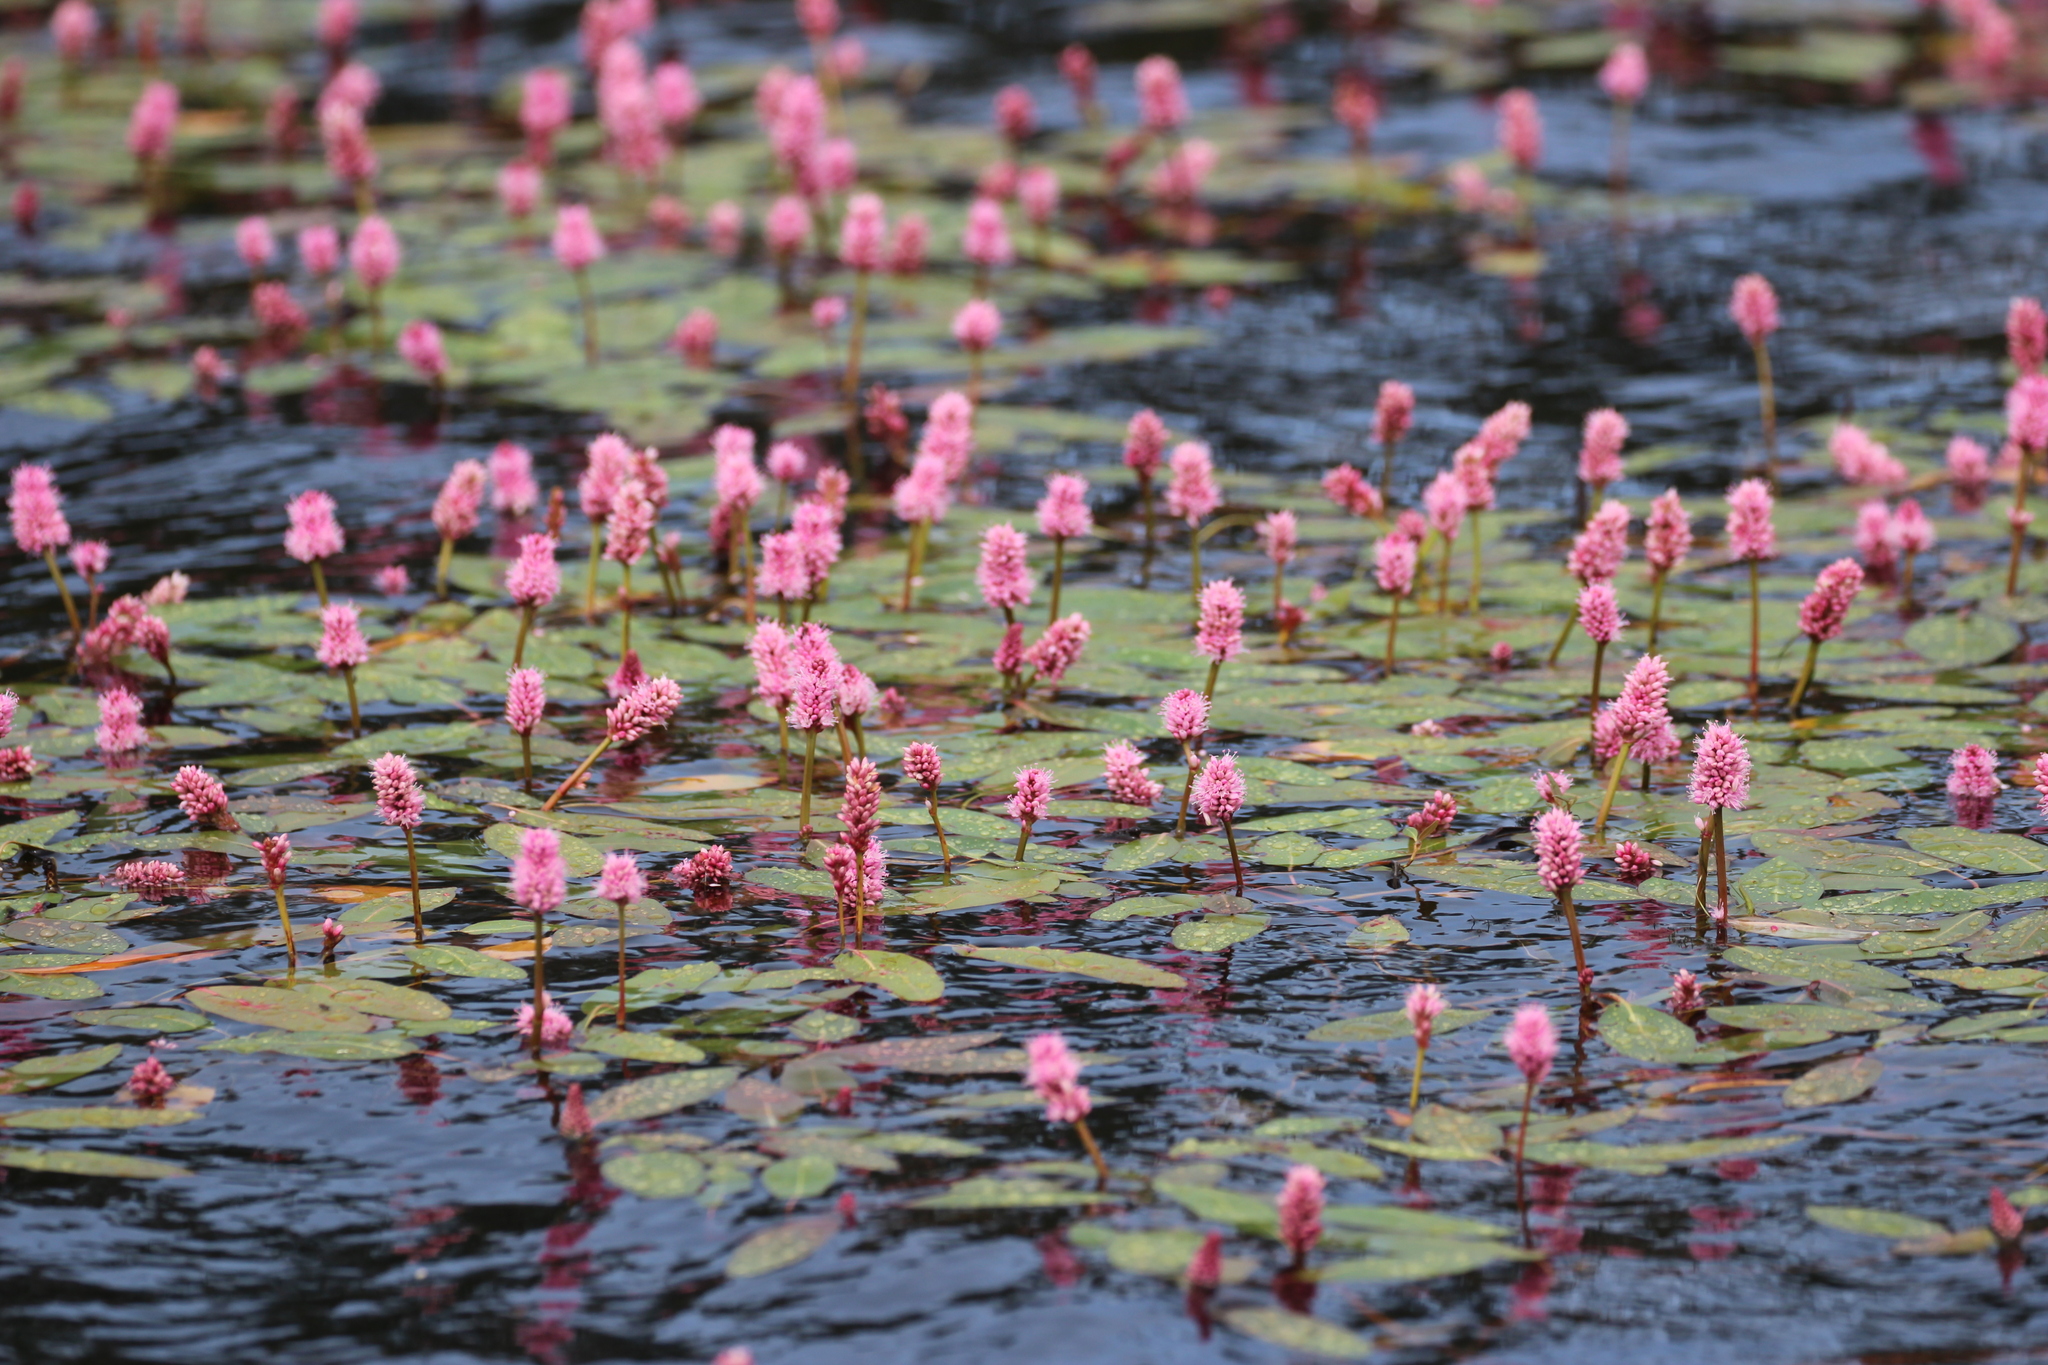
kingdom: Plantae
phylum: Tracheophyta
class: Magnoliopsida
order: Caryophyllales
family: Polygonaceae
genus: Persicaria
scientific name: Persicaria amphibia
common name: Amphibious bistort
